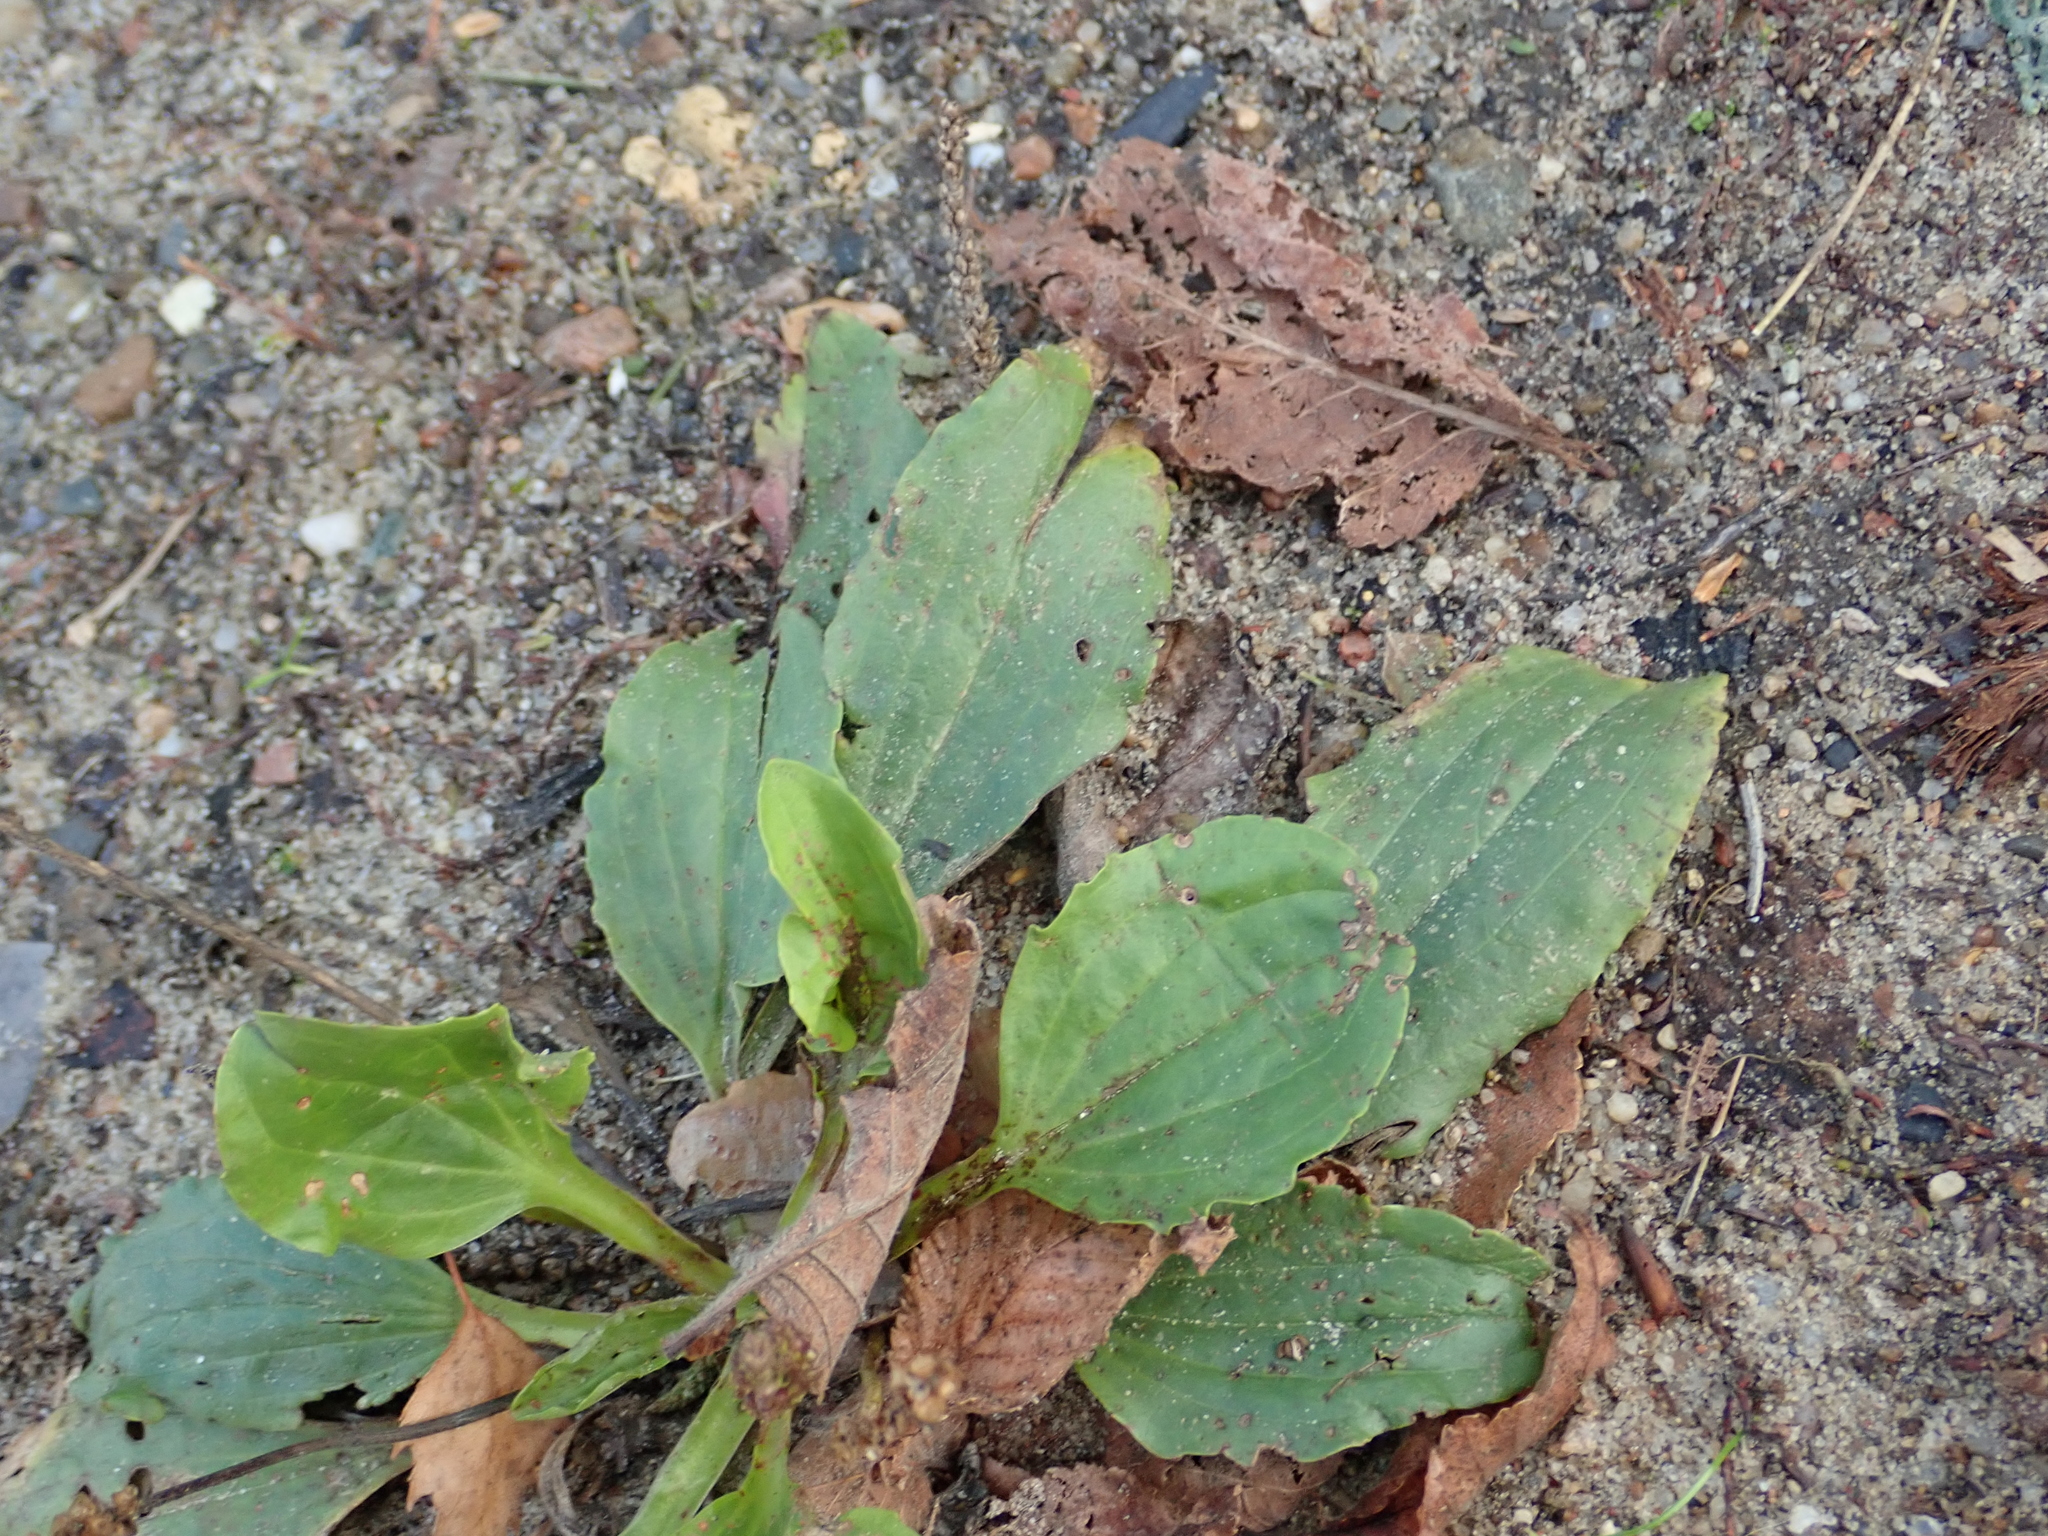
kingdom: Plantae
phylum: Tracheophyta
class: Magnoliopsida
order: Lamiales
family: Plantaginaceae
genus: Plantago
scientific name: Plantago major
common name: Common plantain
